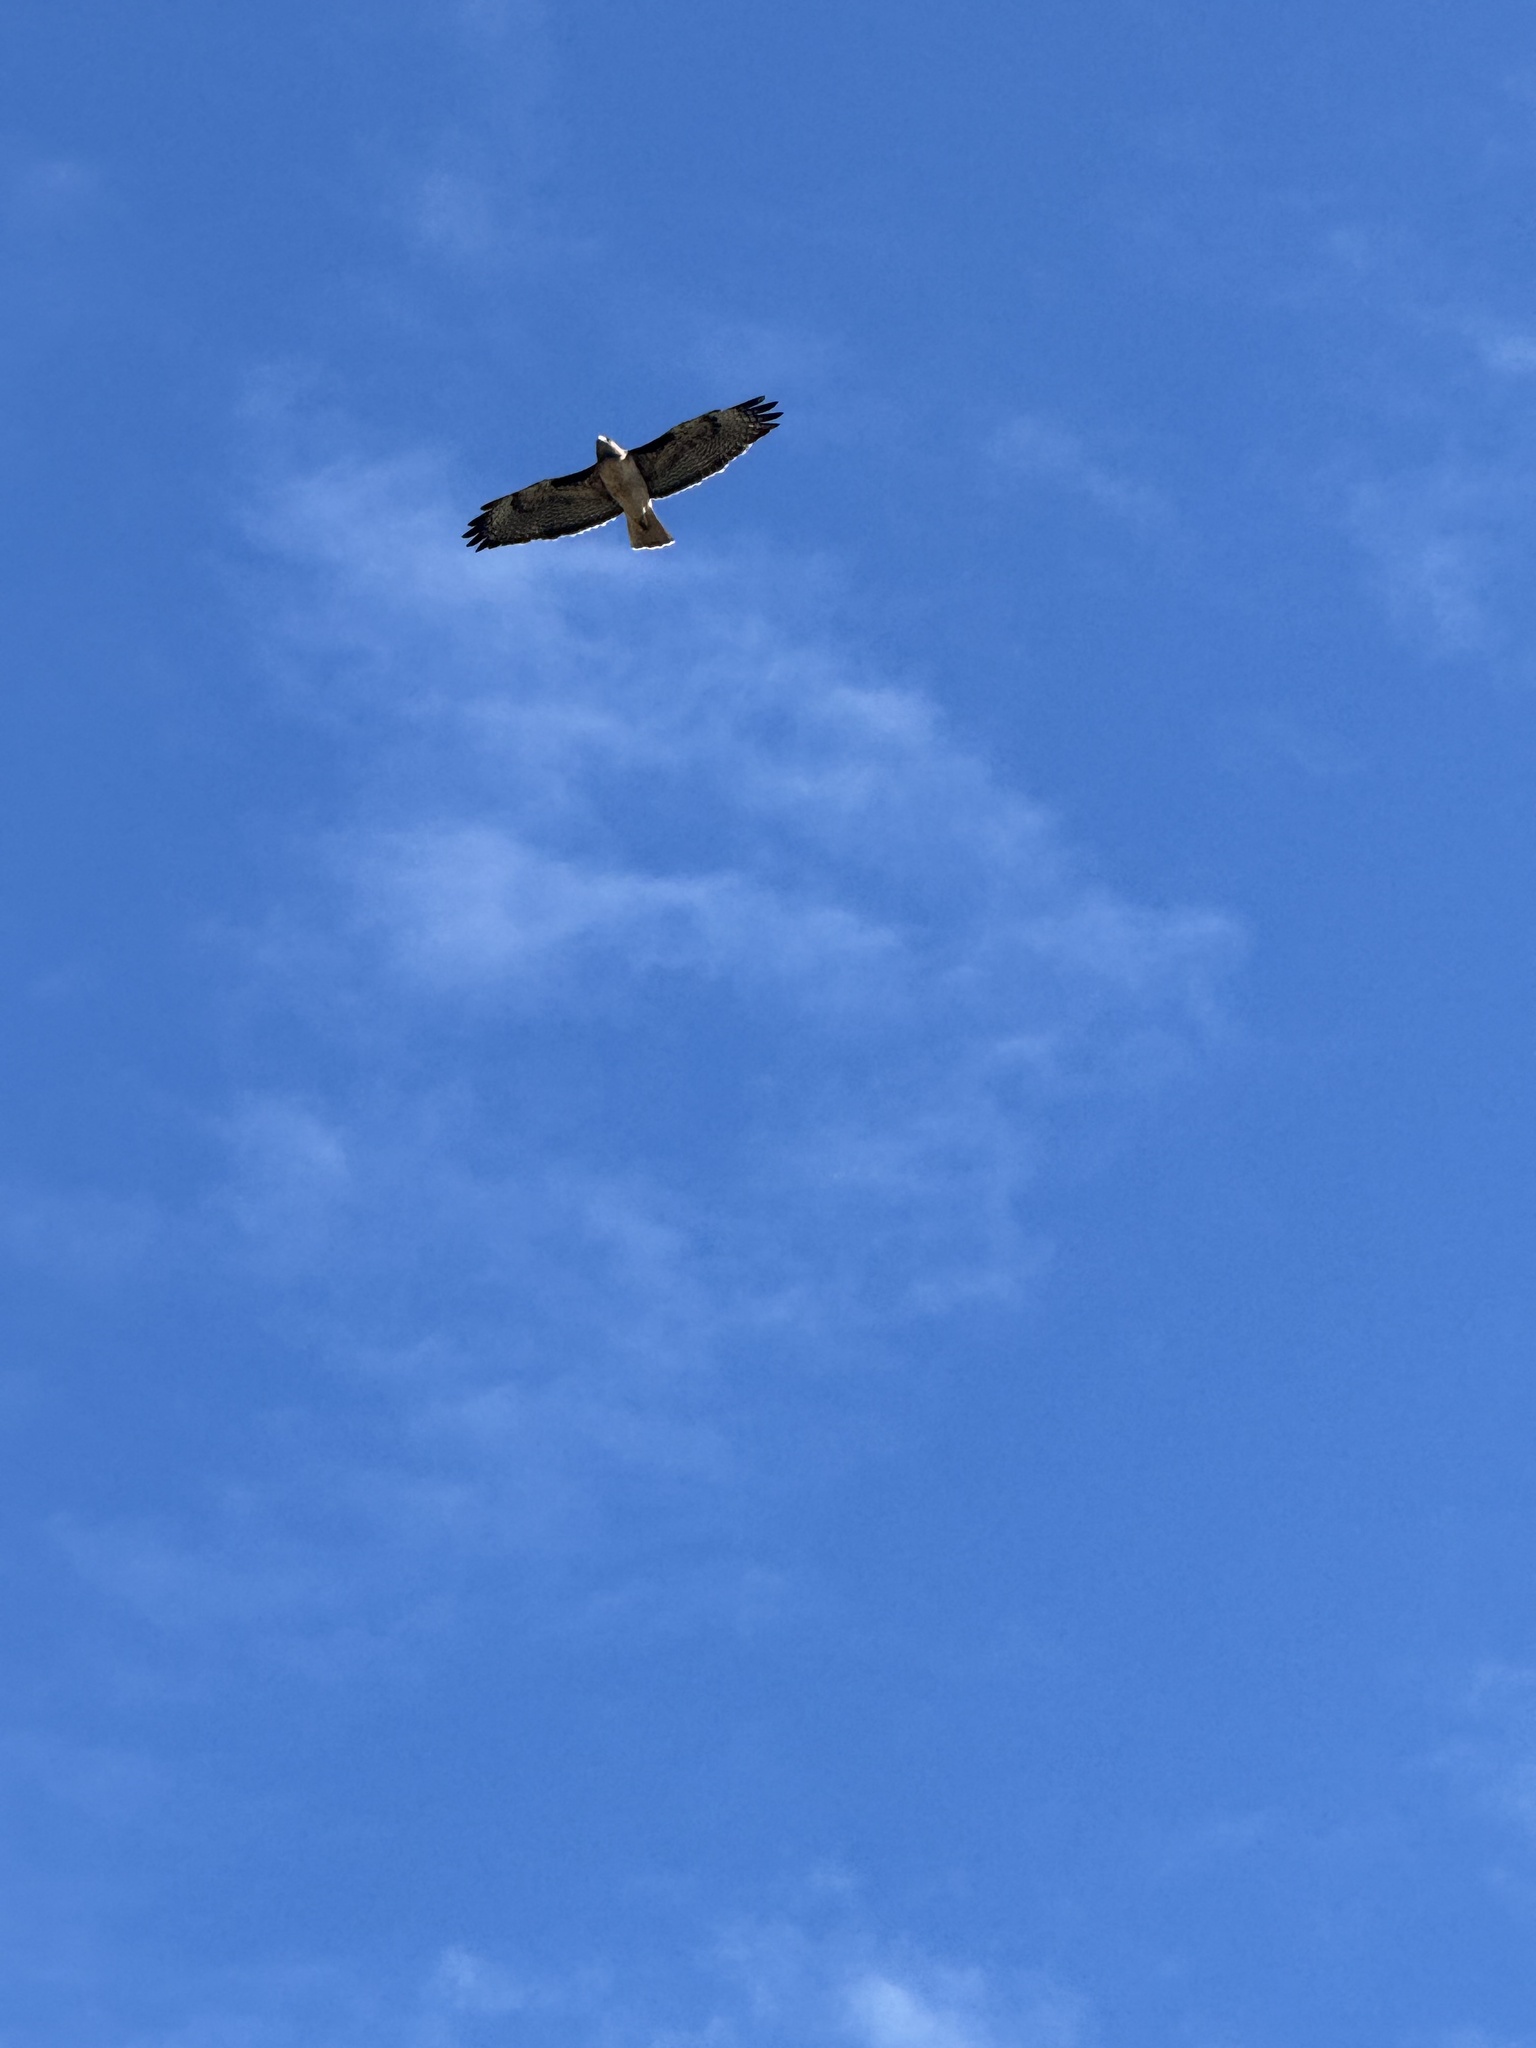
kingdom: Animalia
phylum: Chordata
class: Aves
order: Accipitriformes
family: Accipitridae
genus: Buteo
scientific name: Buteo jamaicensis
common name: Red-tailed hawk
